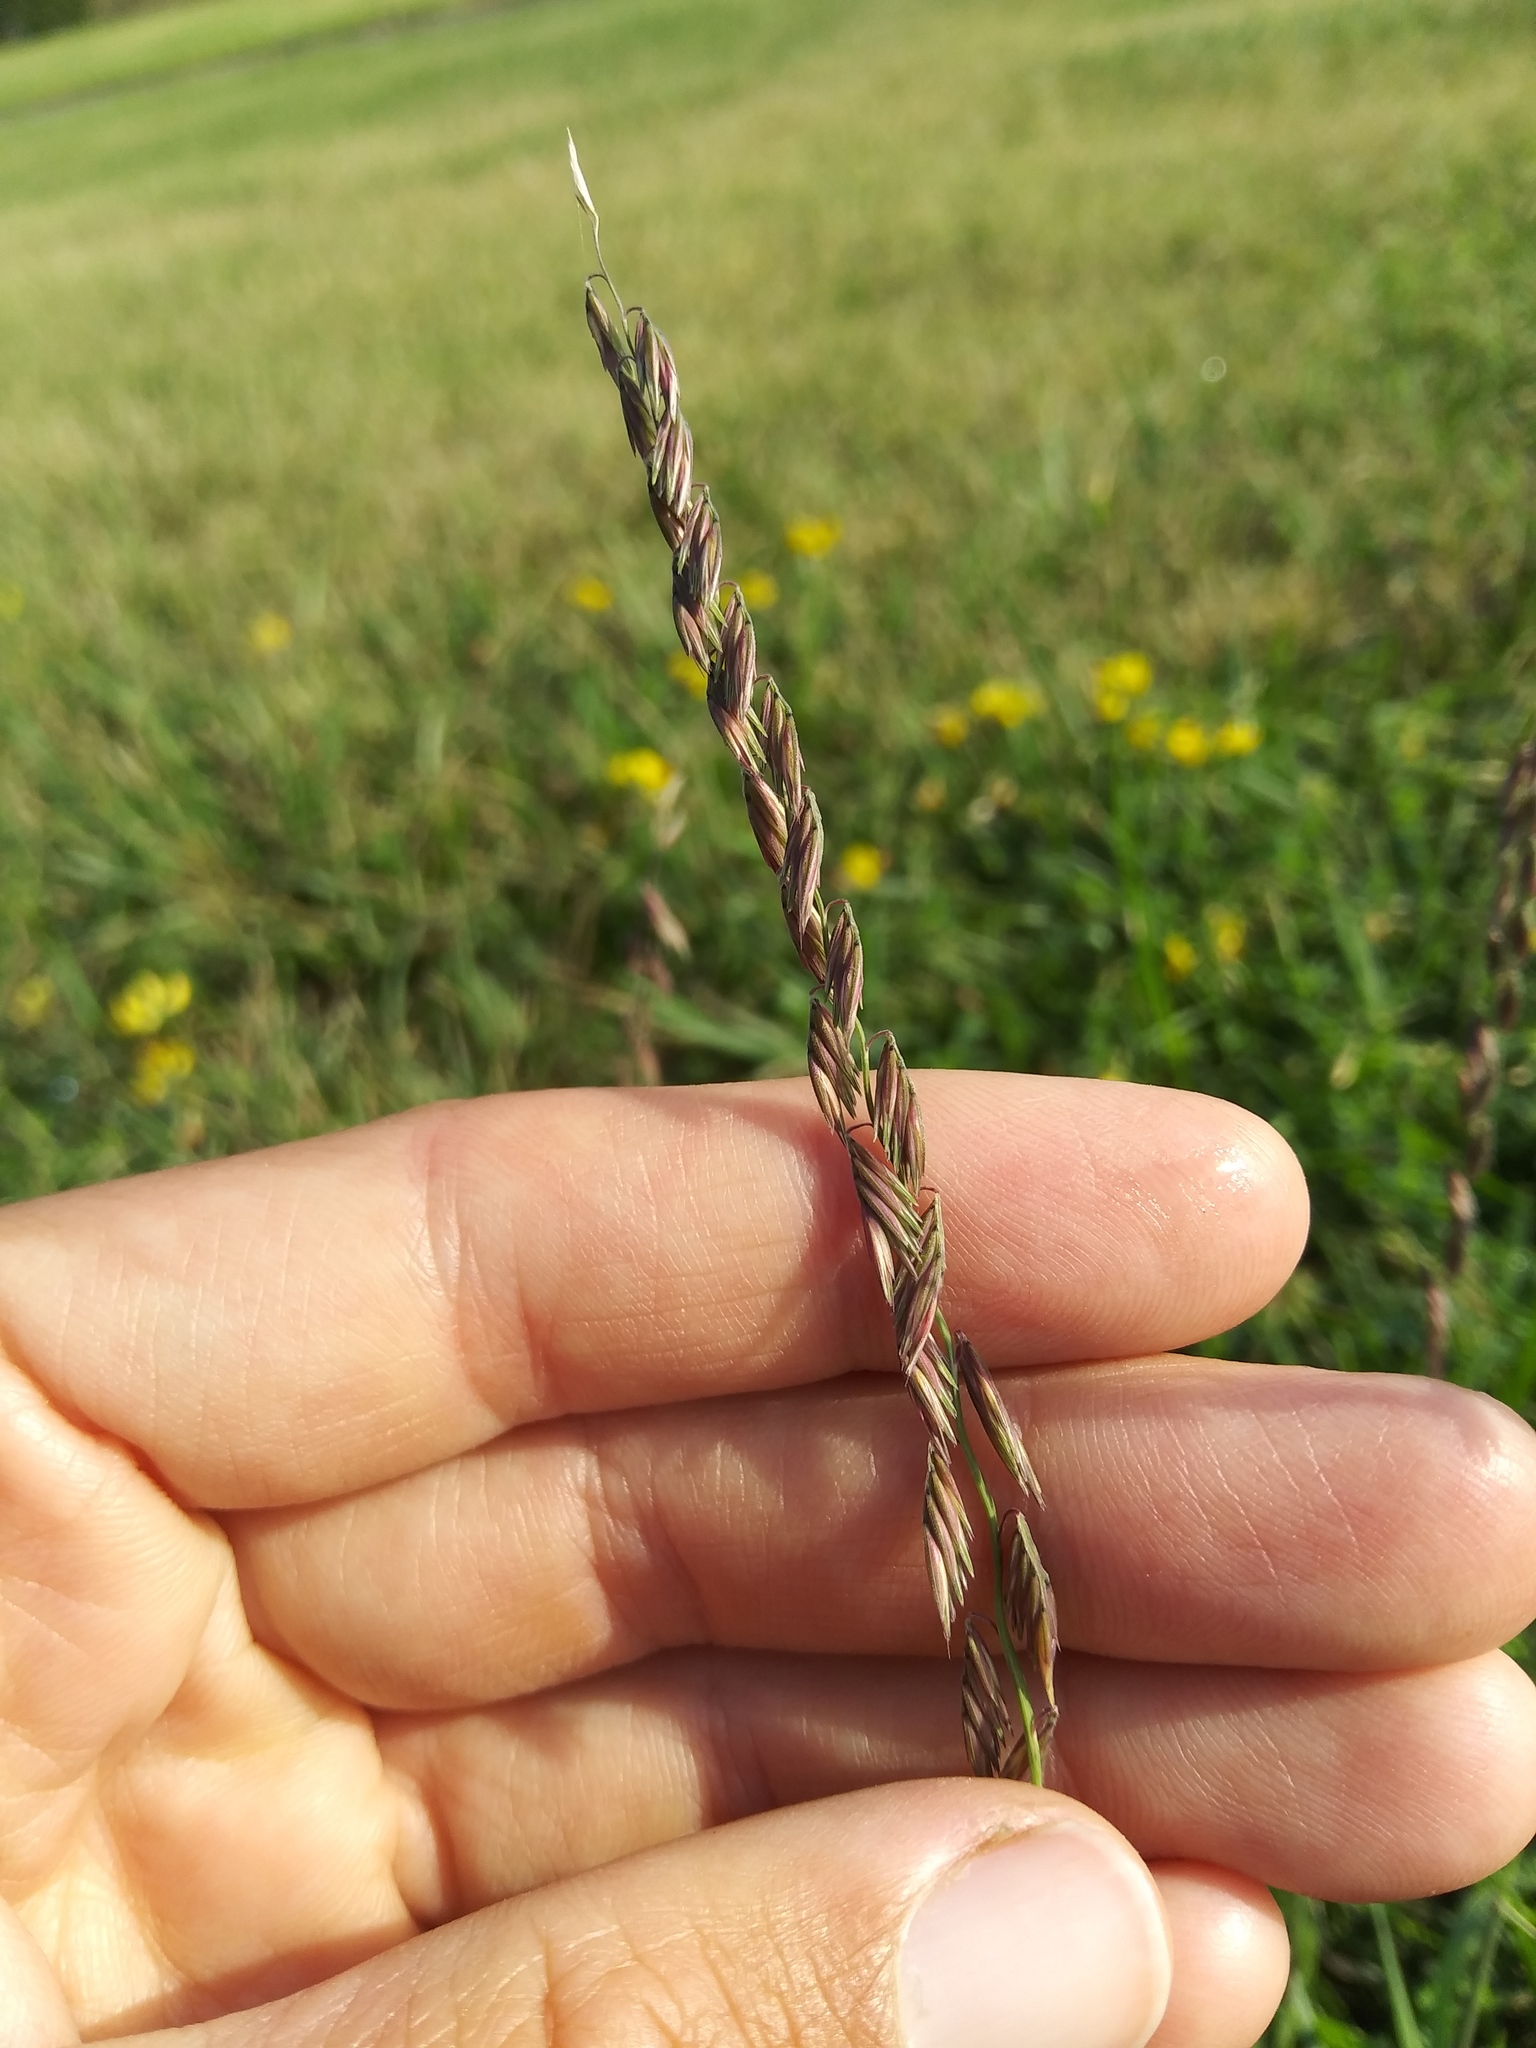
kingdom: Plantae
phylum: Tracheophyta
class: Liliopsida
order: Poales
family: Poaceae
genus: Bouteloua
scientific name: Bouteloua curtipendula
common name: Side-oats grama
